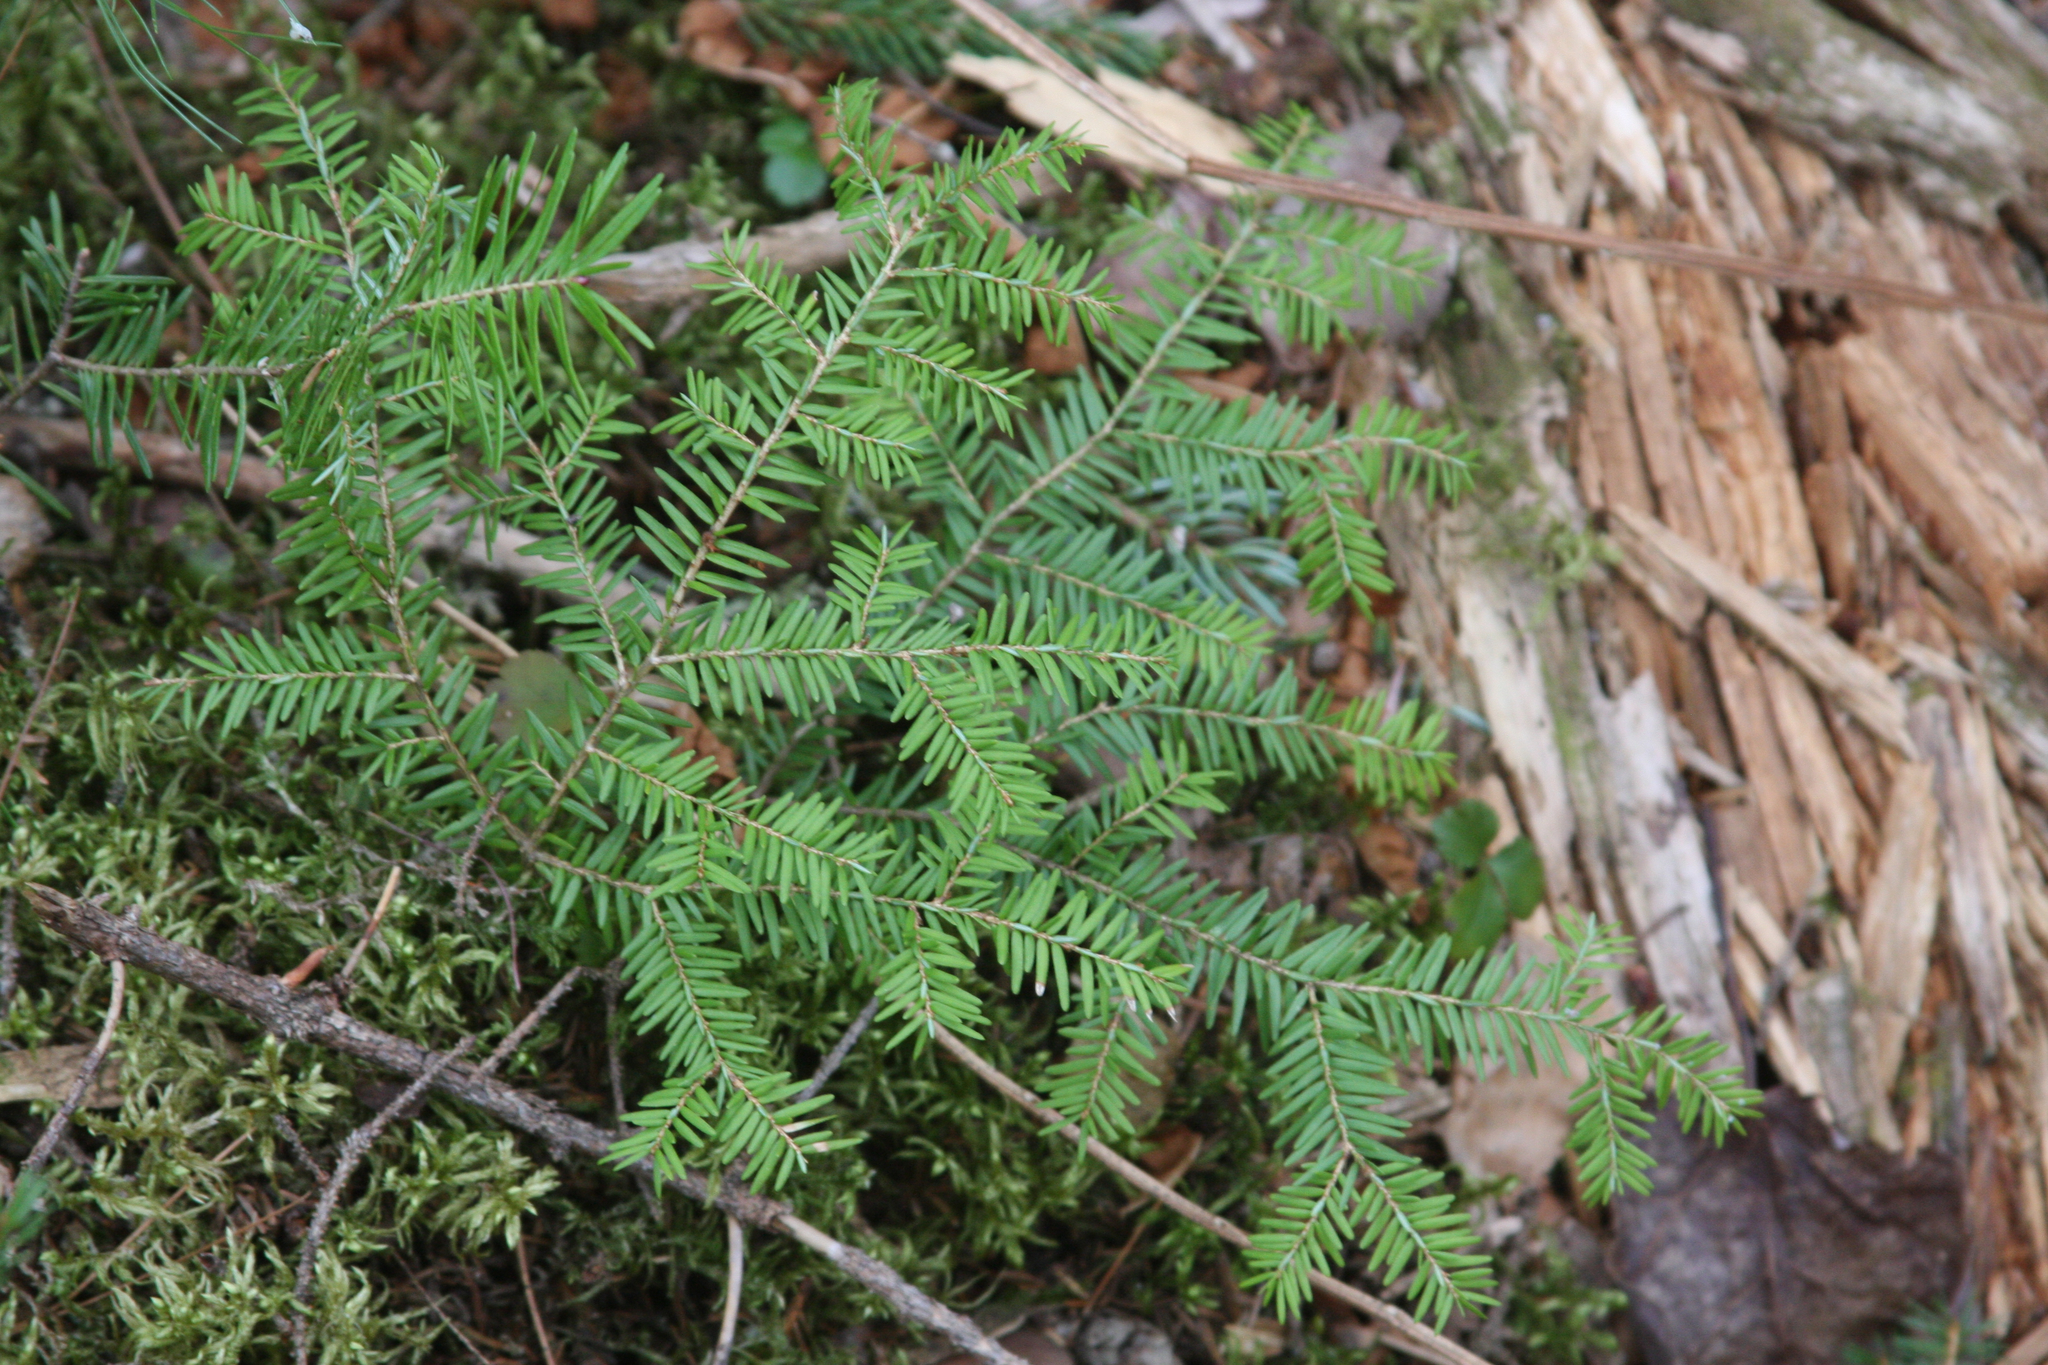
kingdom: Plantae
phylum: Tracheophyta
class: Pinopsida
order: Pinales
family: Pinaceae
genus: Tsuga
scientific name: Tsuga canadensis
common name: Eastern hemlock
